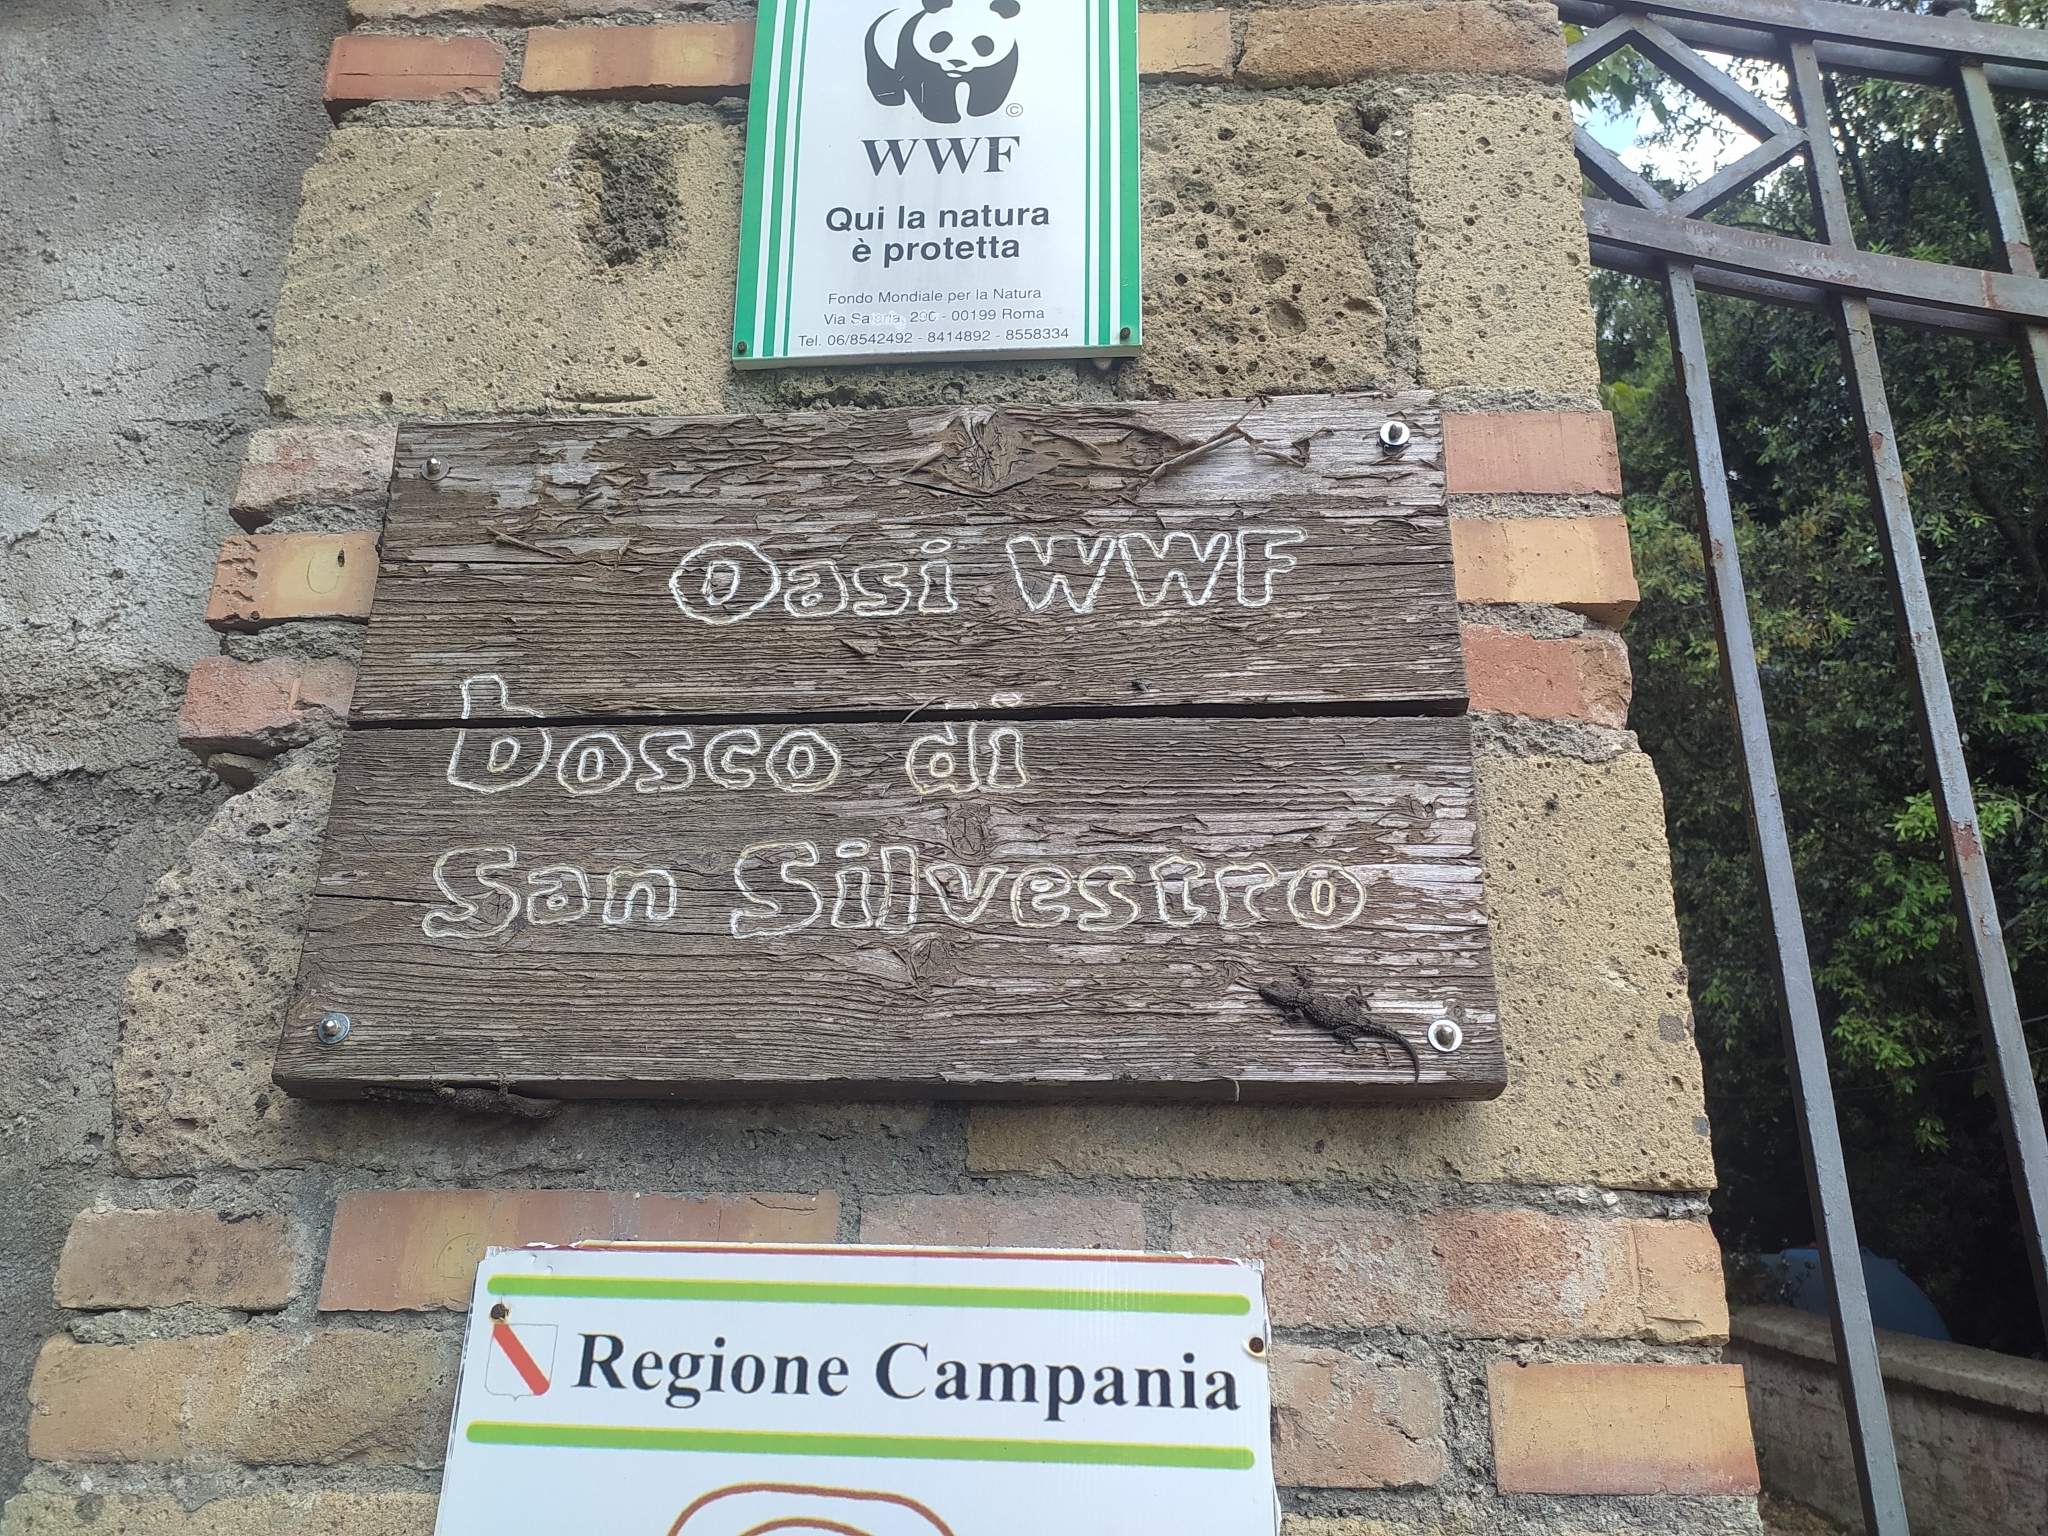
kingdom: Animalia
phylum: Chordata
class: Squamata
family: Phyllodactylidae
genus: Tarentola
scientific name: Tarentola mauritanica
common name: Moorish gecko
